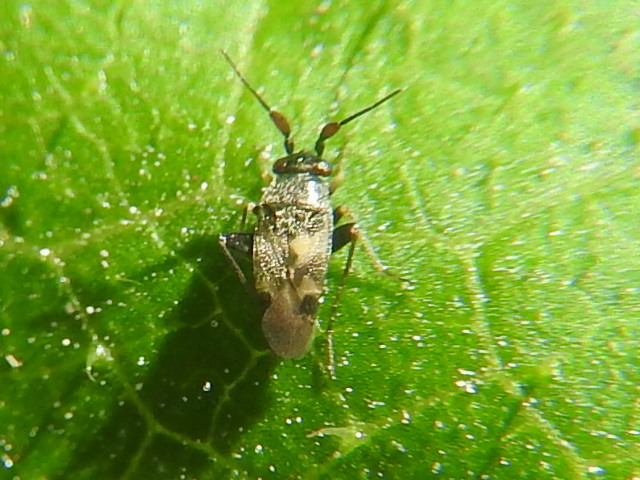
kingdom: Animalia
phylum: Arthropoda
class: Insecta
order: Hemiptera
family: Miridae
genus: Spanagonicus
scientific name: Spanagonicus albofasciatus
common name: Whitemarked fleahopper
